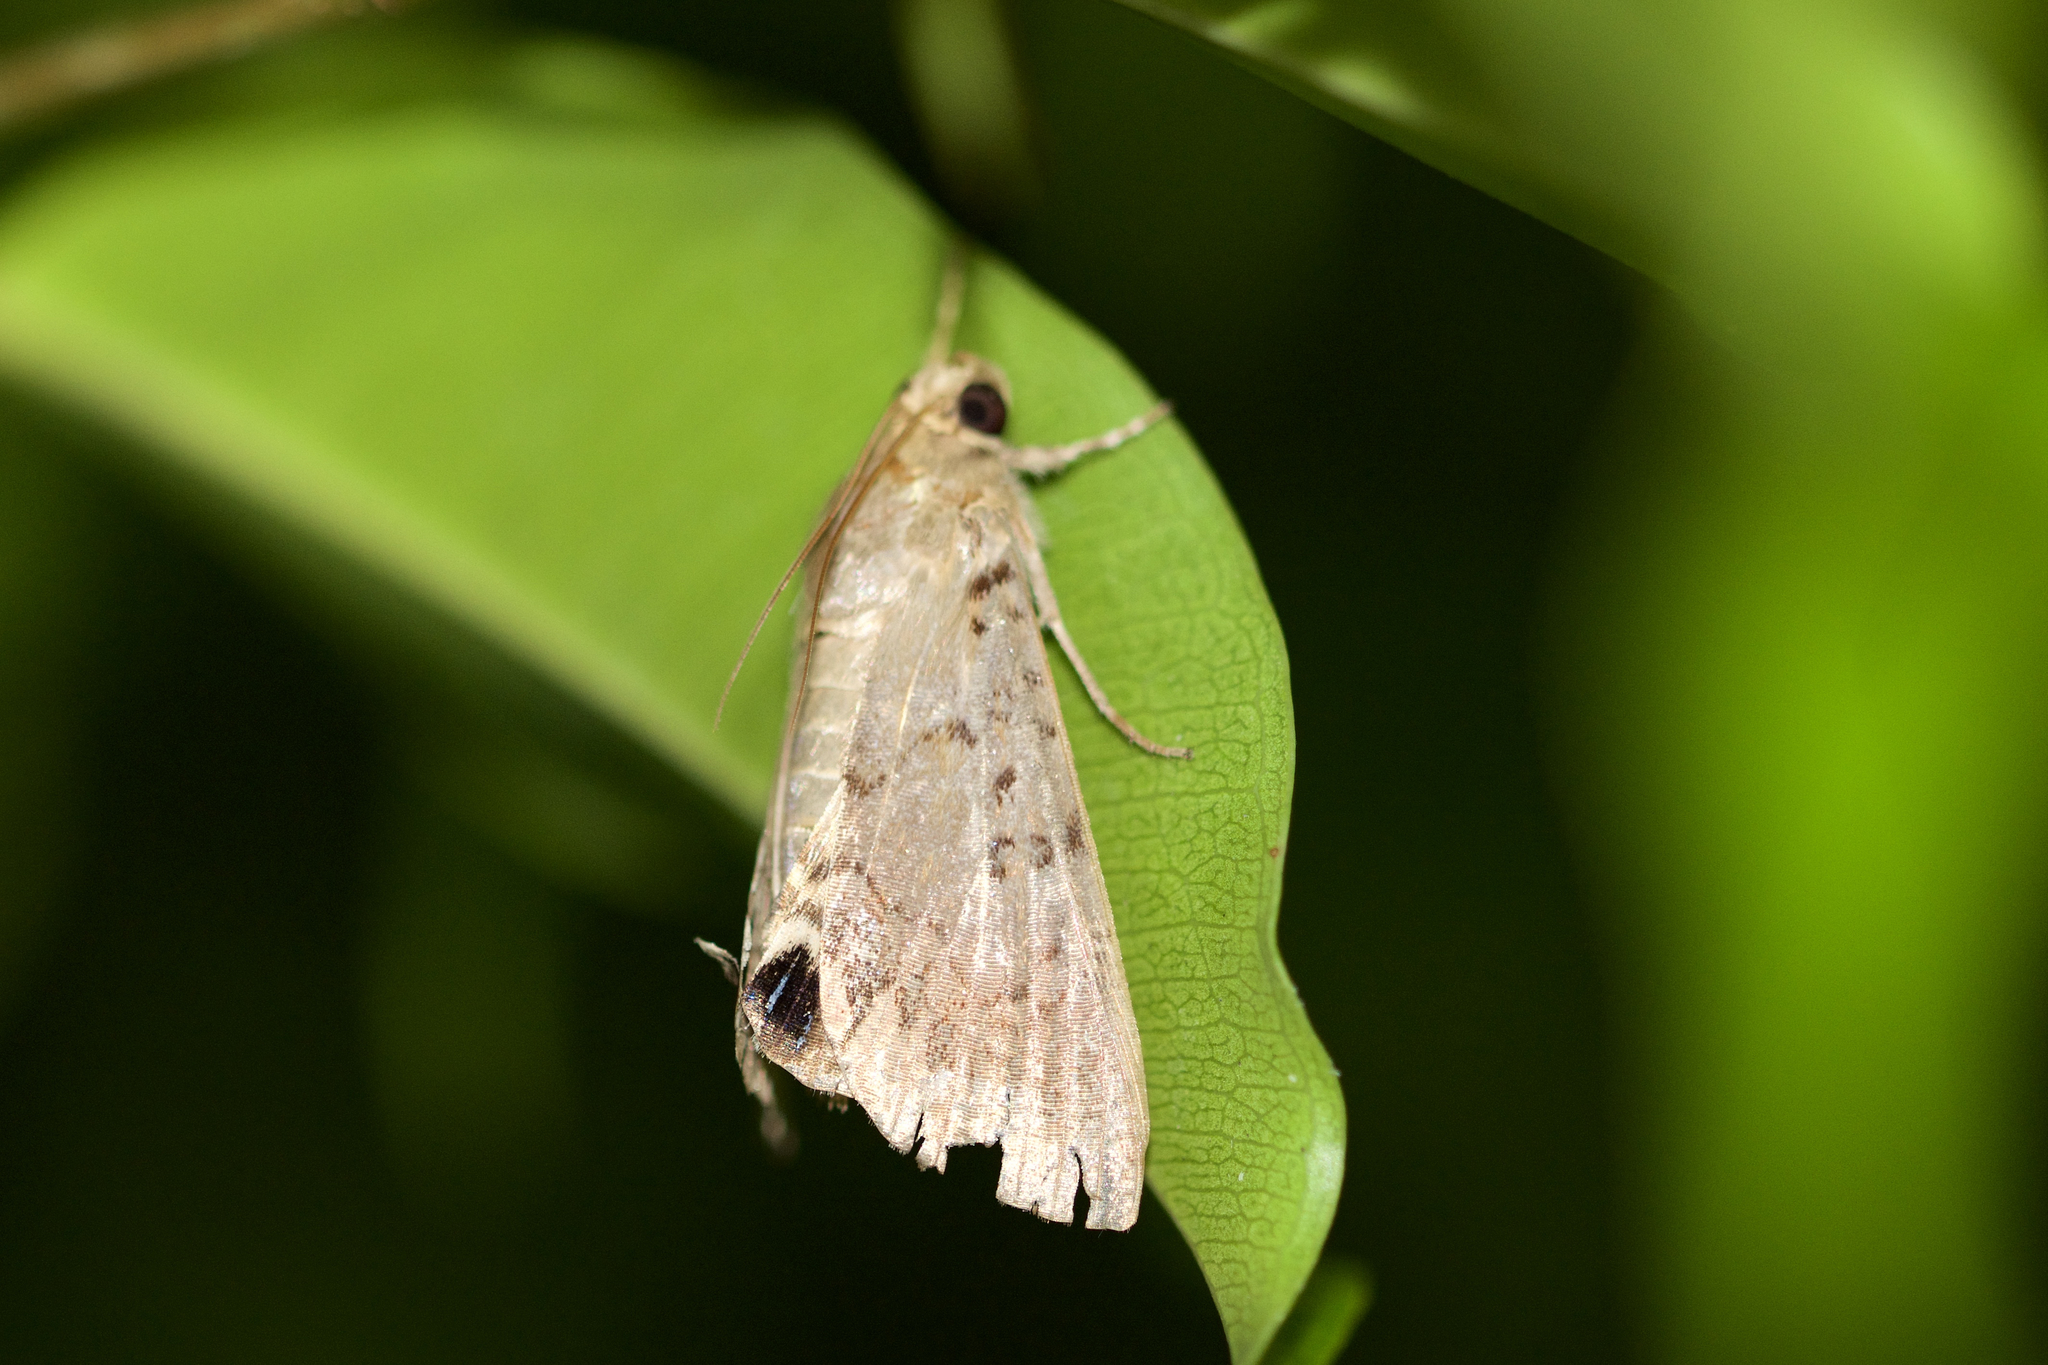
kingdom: Animalia
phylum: Arthropoda
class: Insecta
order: Lepidoptera
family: Erebidae
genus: Litoprosopus
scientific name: Litoprosopus futilis
